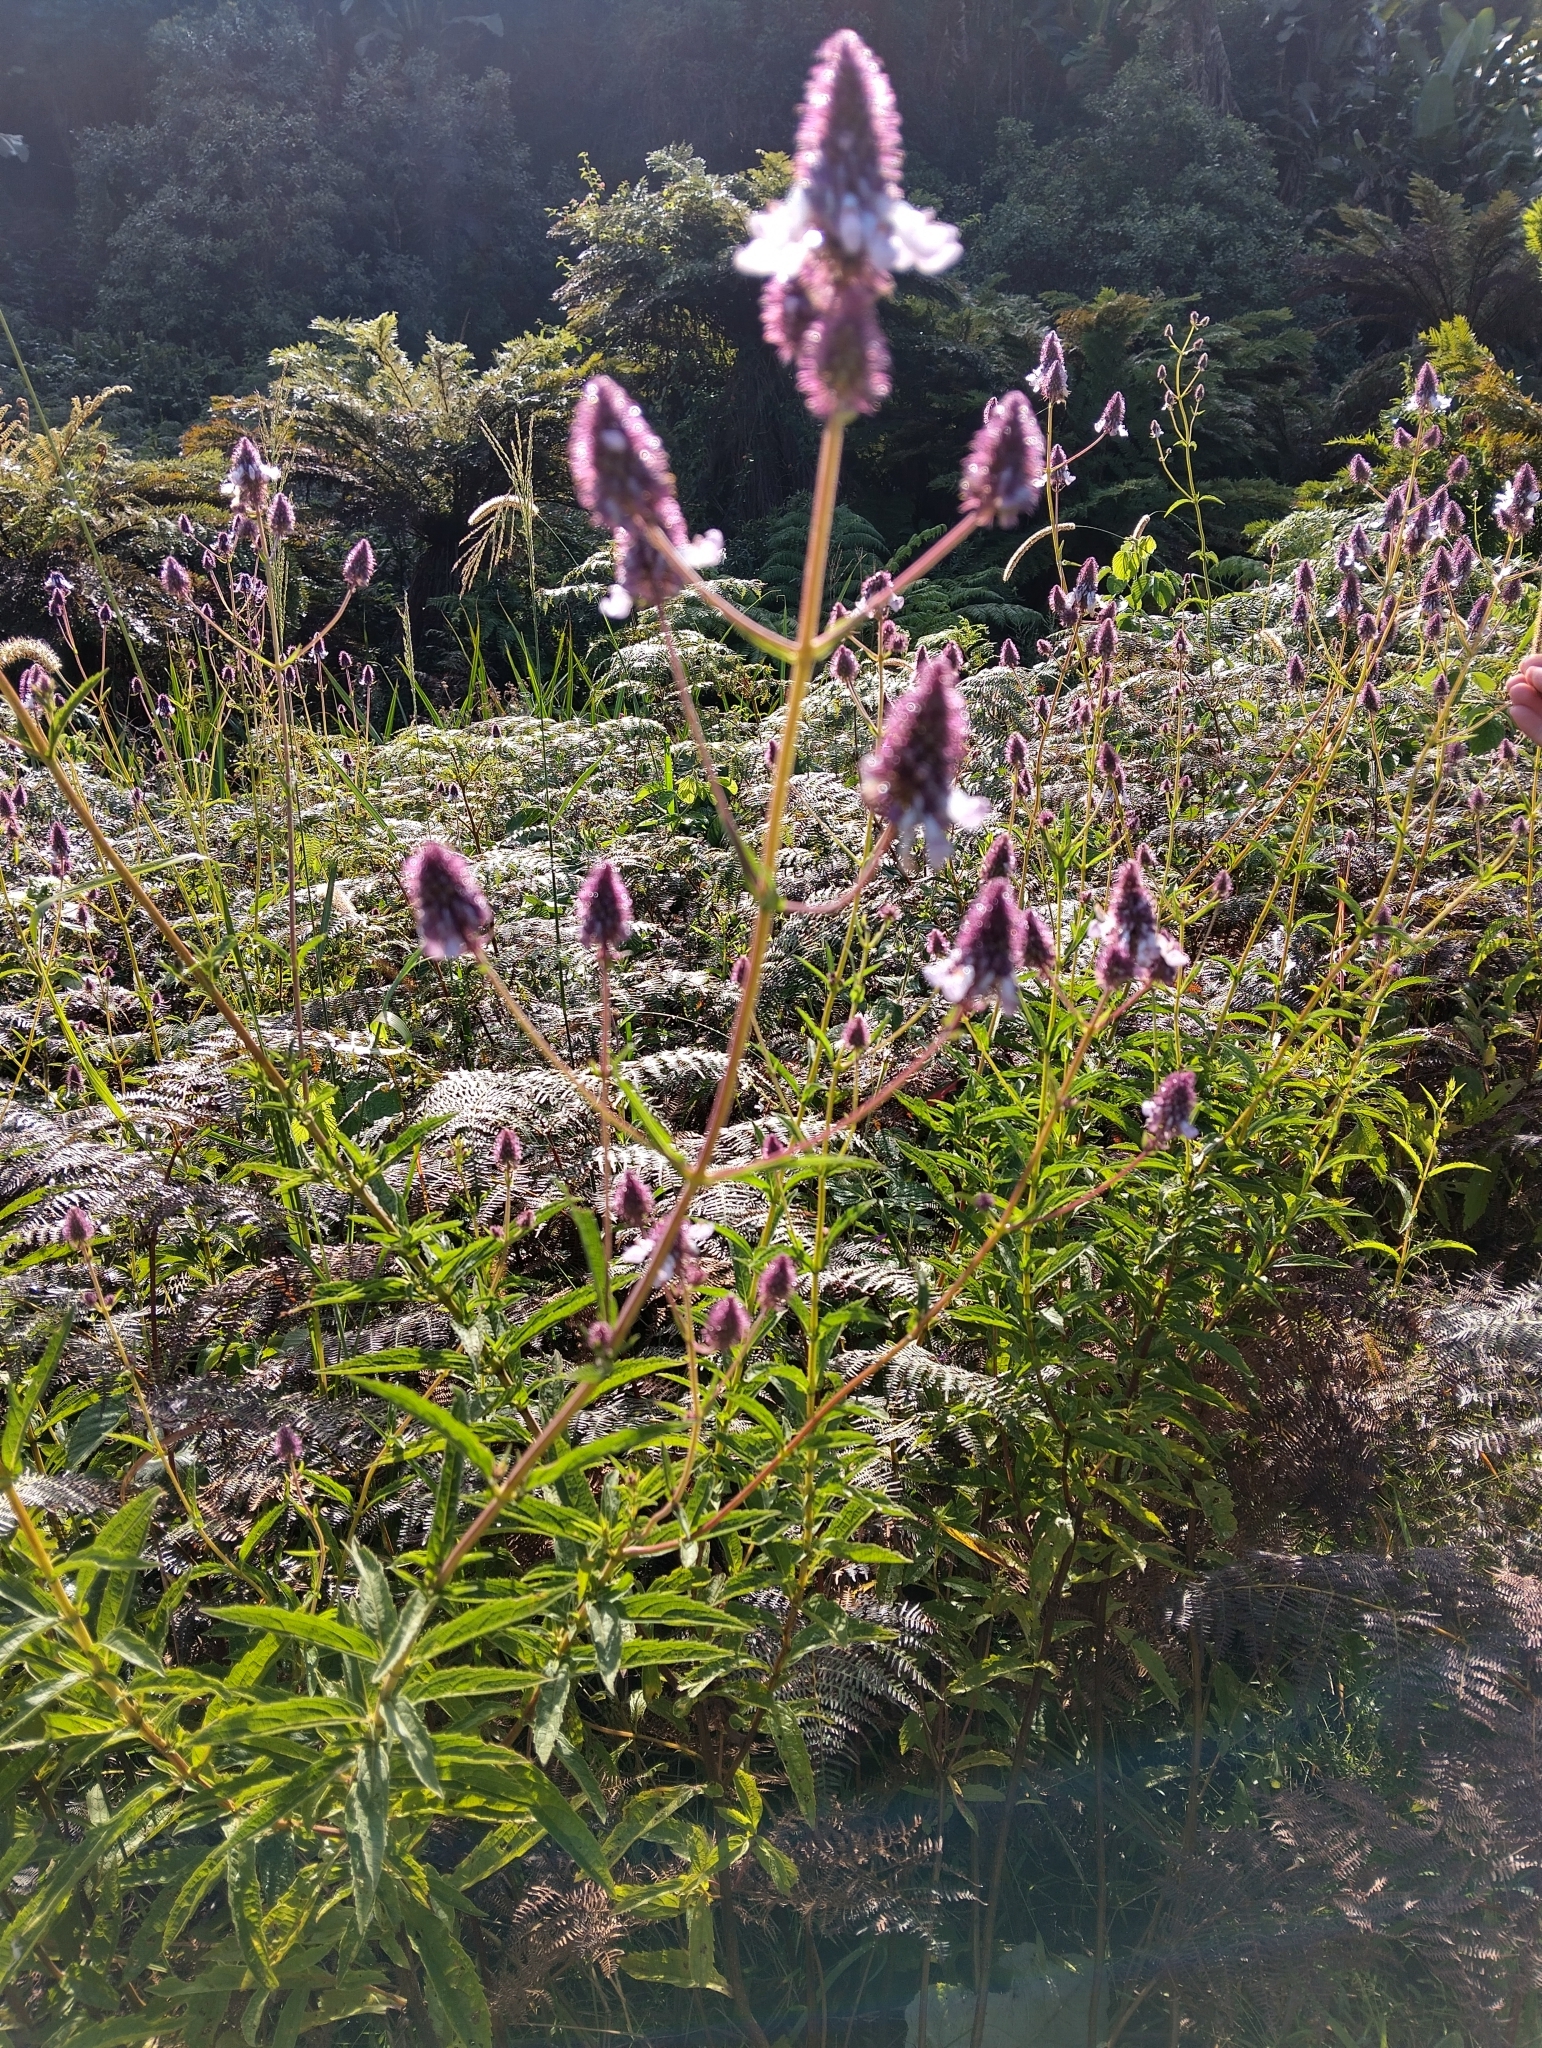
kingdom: Plantae
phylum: Tracheophyta
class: Magnoliopsida
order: Lamiales
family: Lamiaceae
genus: Coleus
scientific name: Coleus kirkii
